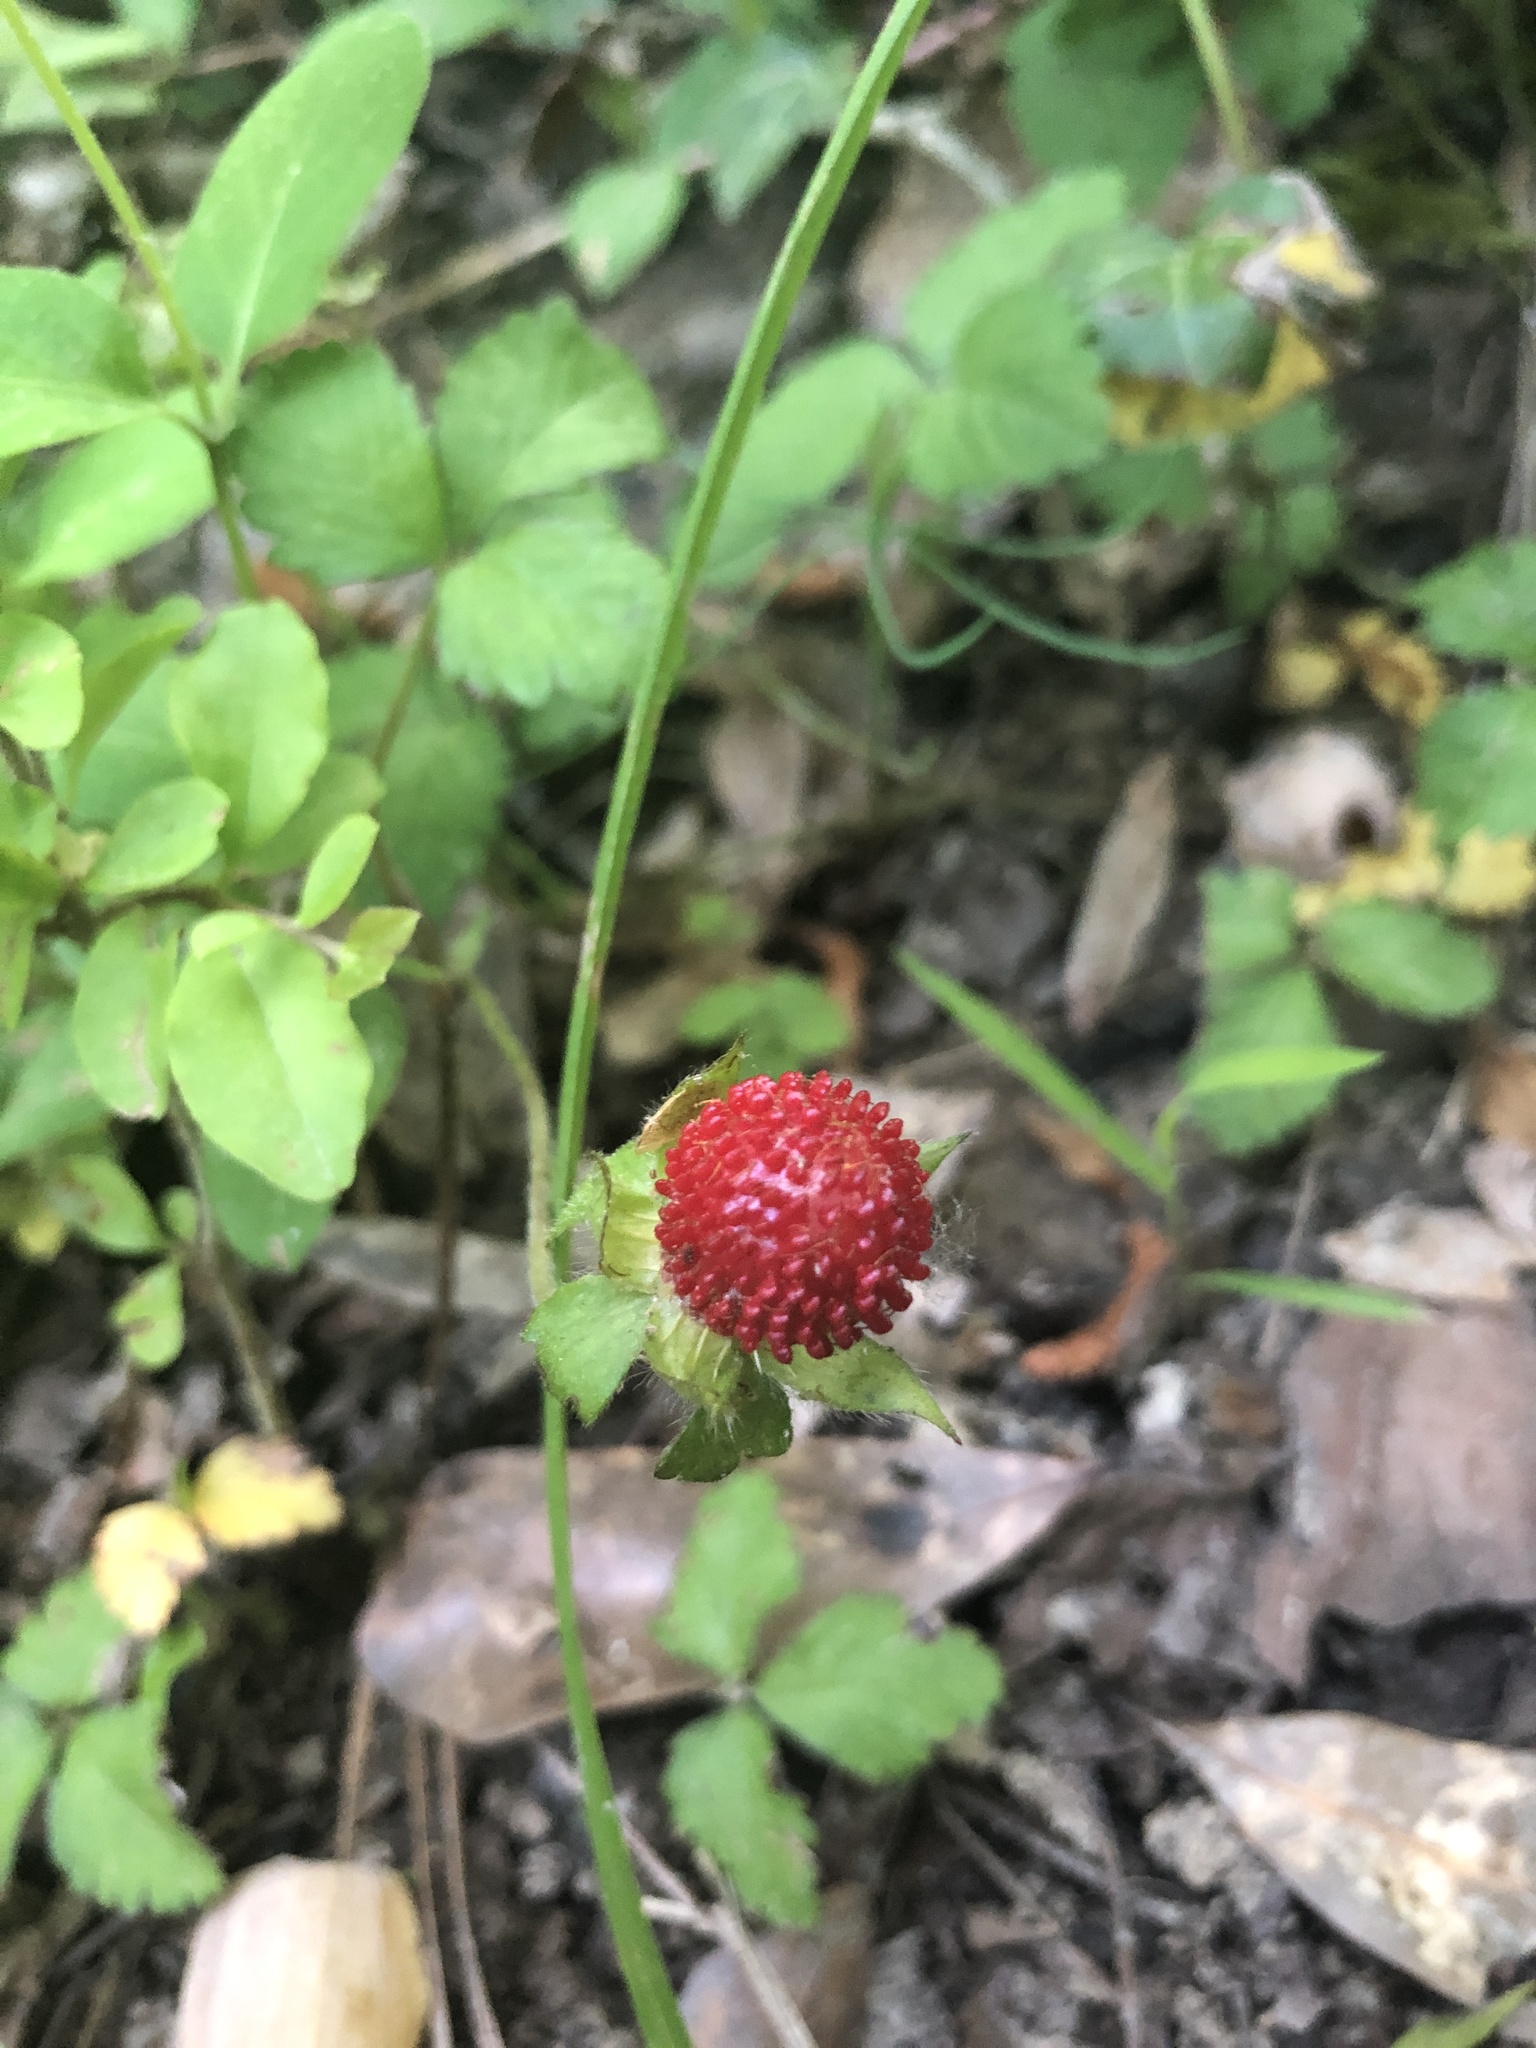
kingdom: Plantae
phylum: Tracheophyta
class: Magnoliopsida
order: Rosales
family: Rosaceae
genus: Potentilla
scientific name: Potentilla indica
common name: Yellow-flowered strawberry
